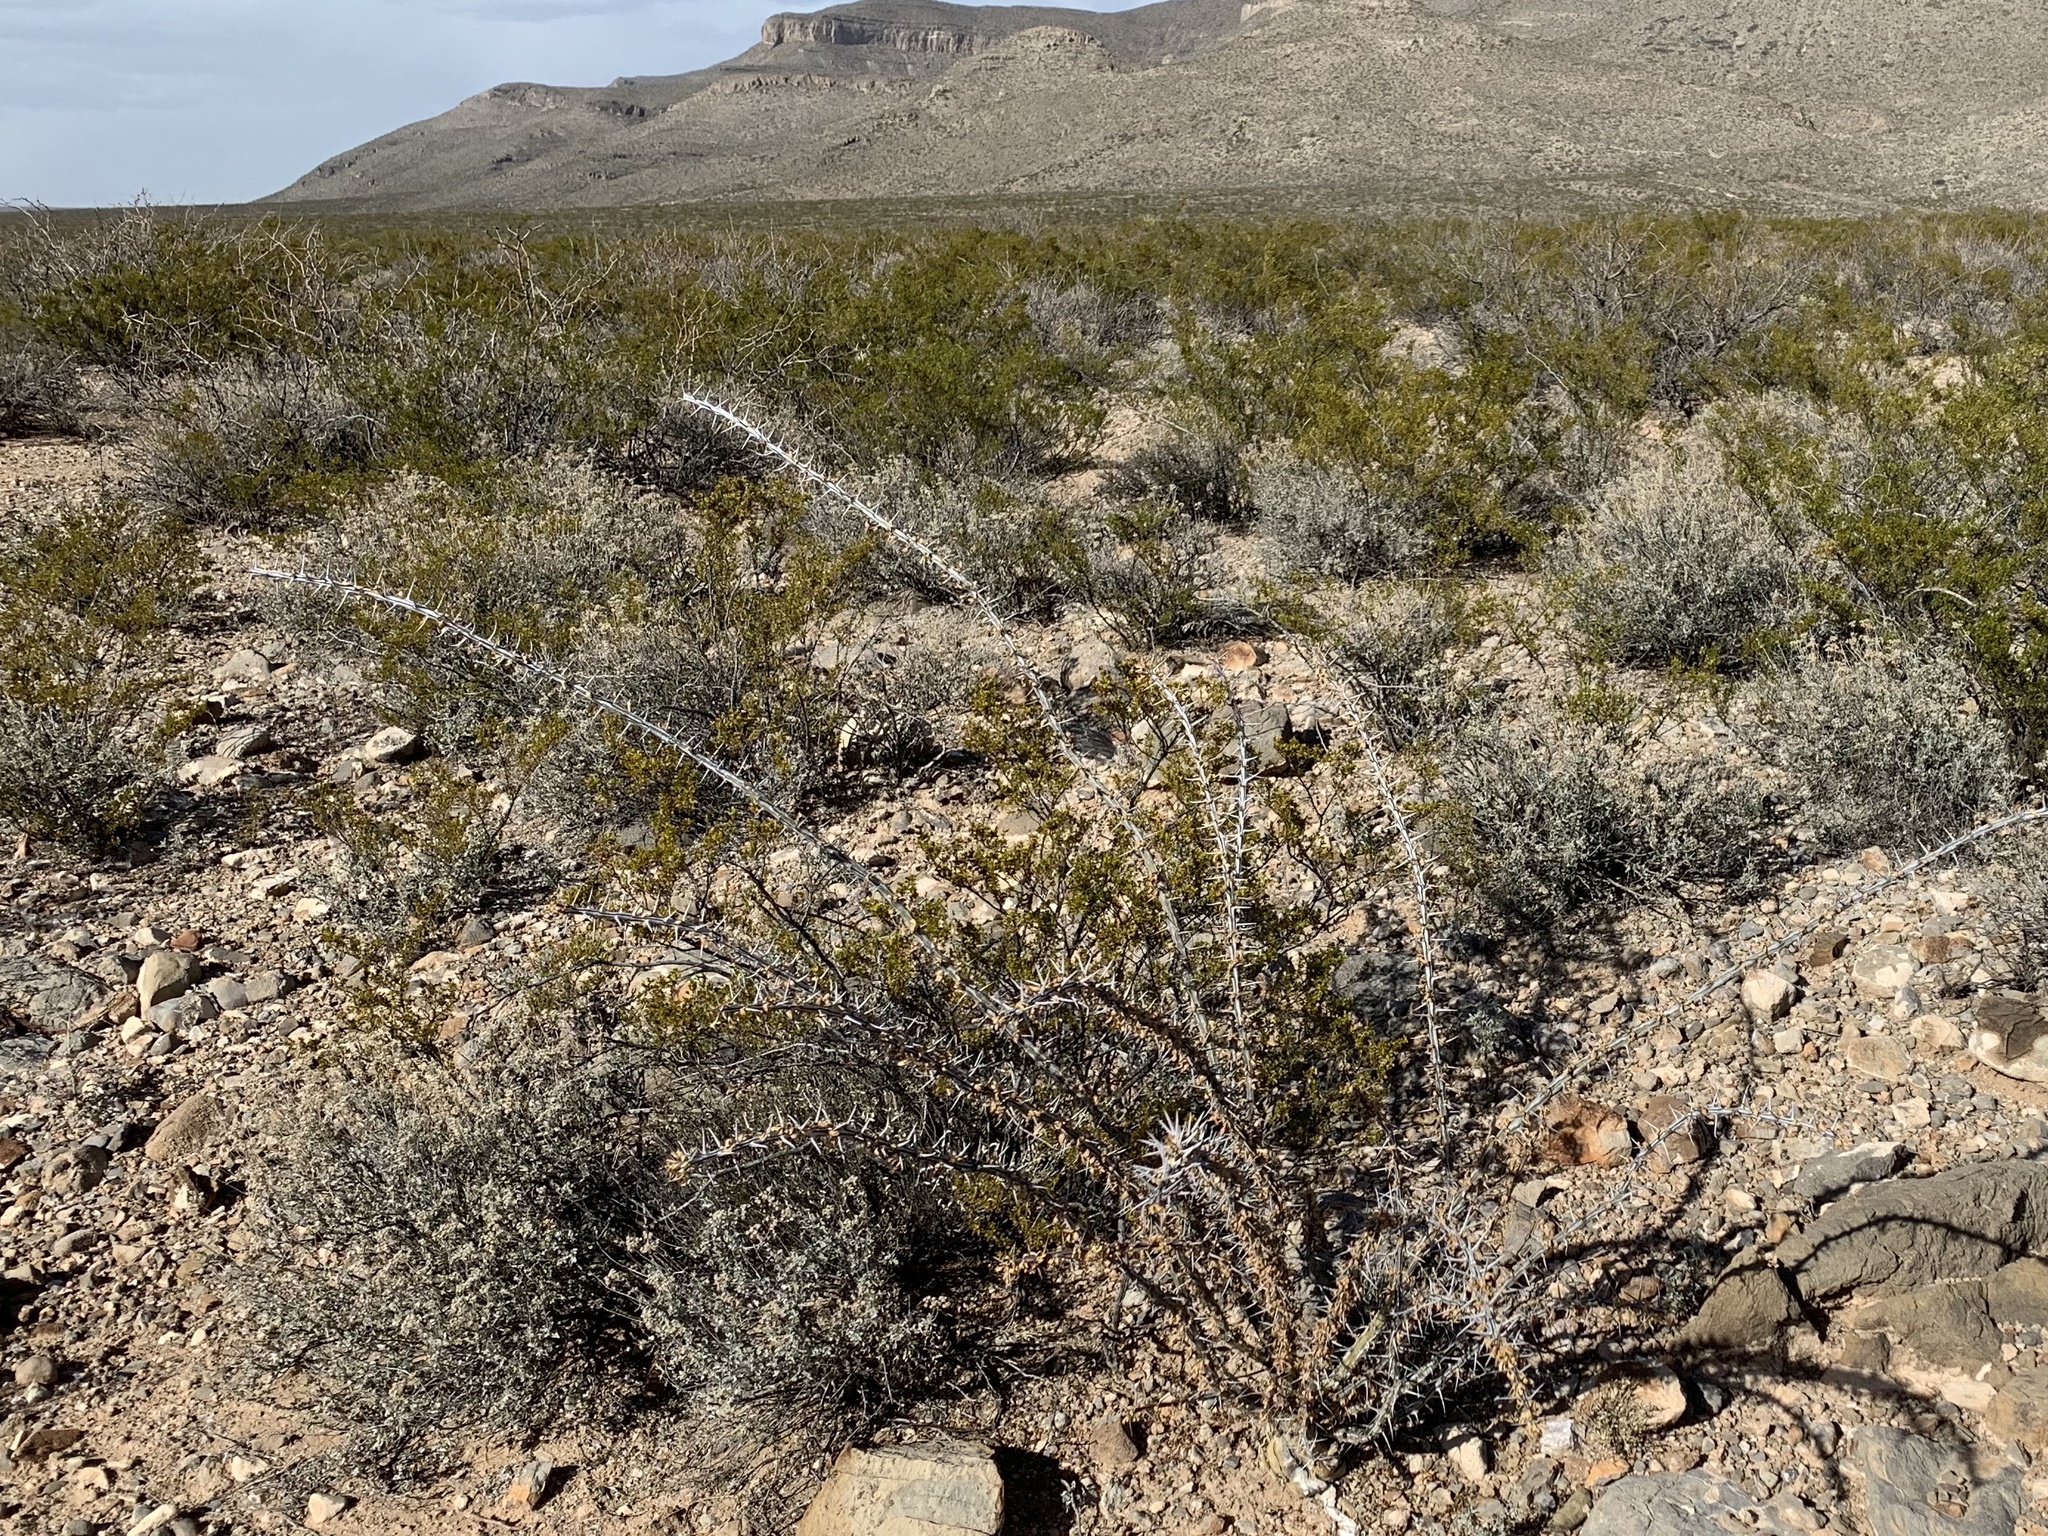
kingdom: Plantae
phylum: Tracheophyta
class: Magnoliopsida
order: Ericales
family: Fouquieriaceae
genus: Fouquieria
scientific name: Fouquieria splendens
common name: Vine-cactus
